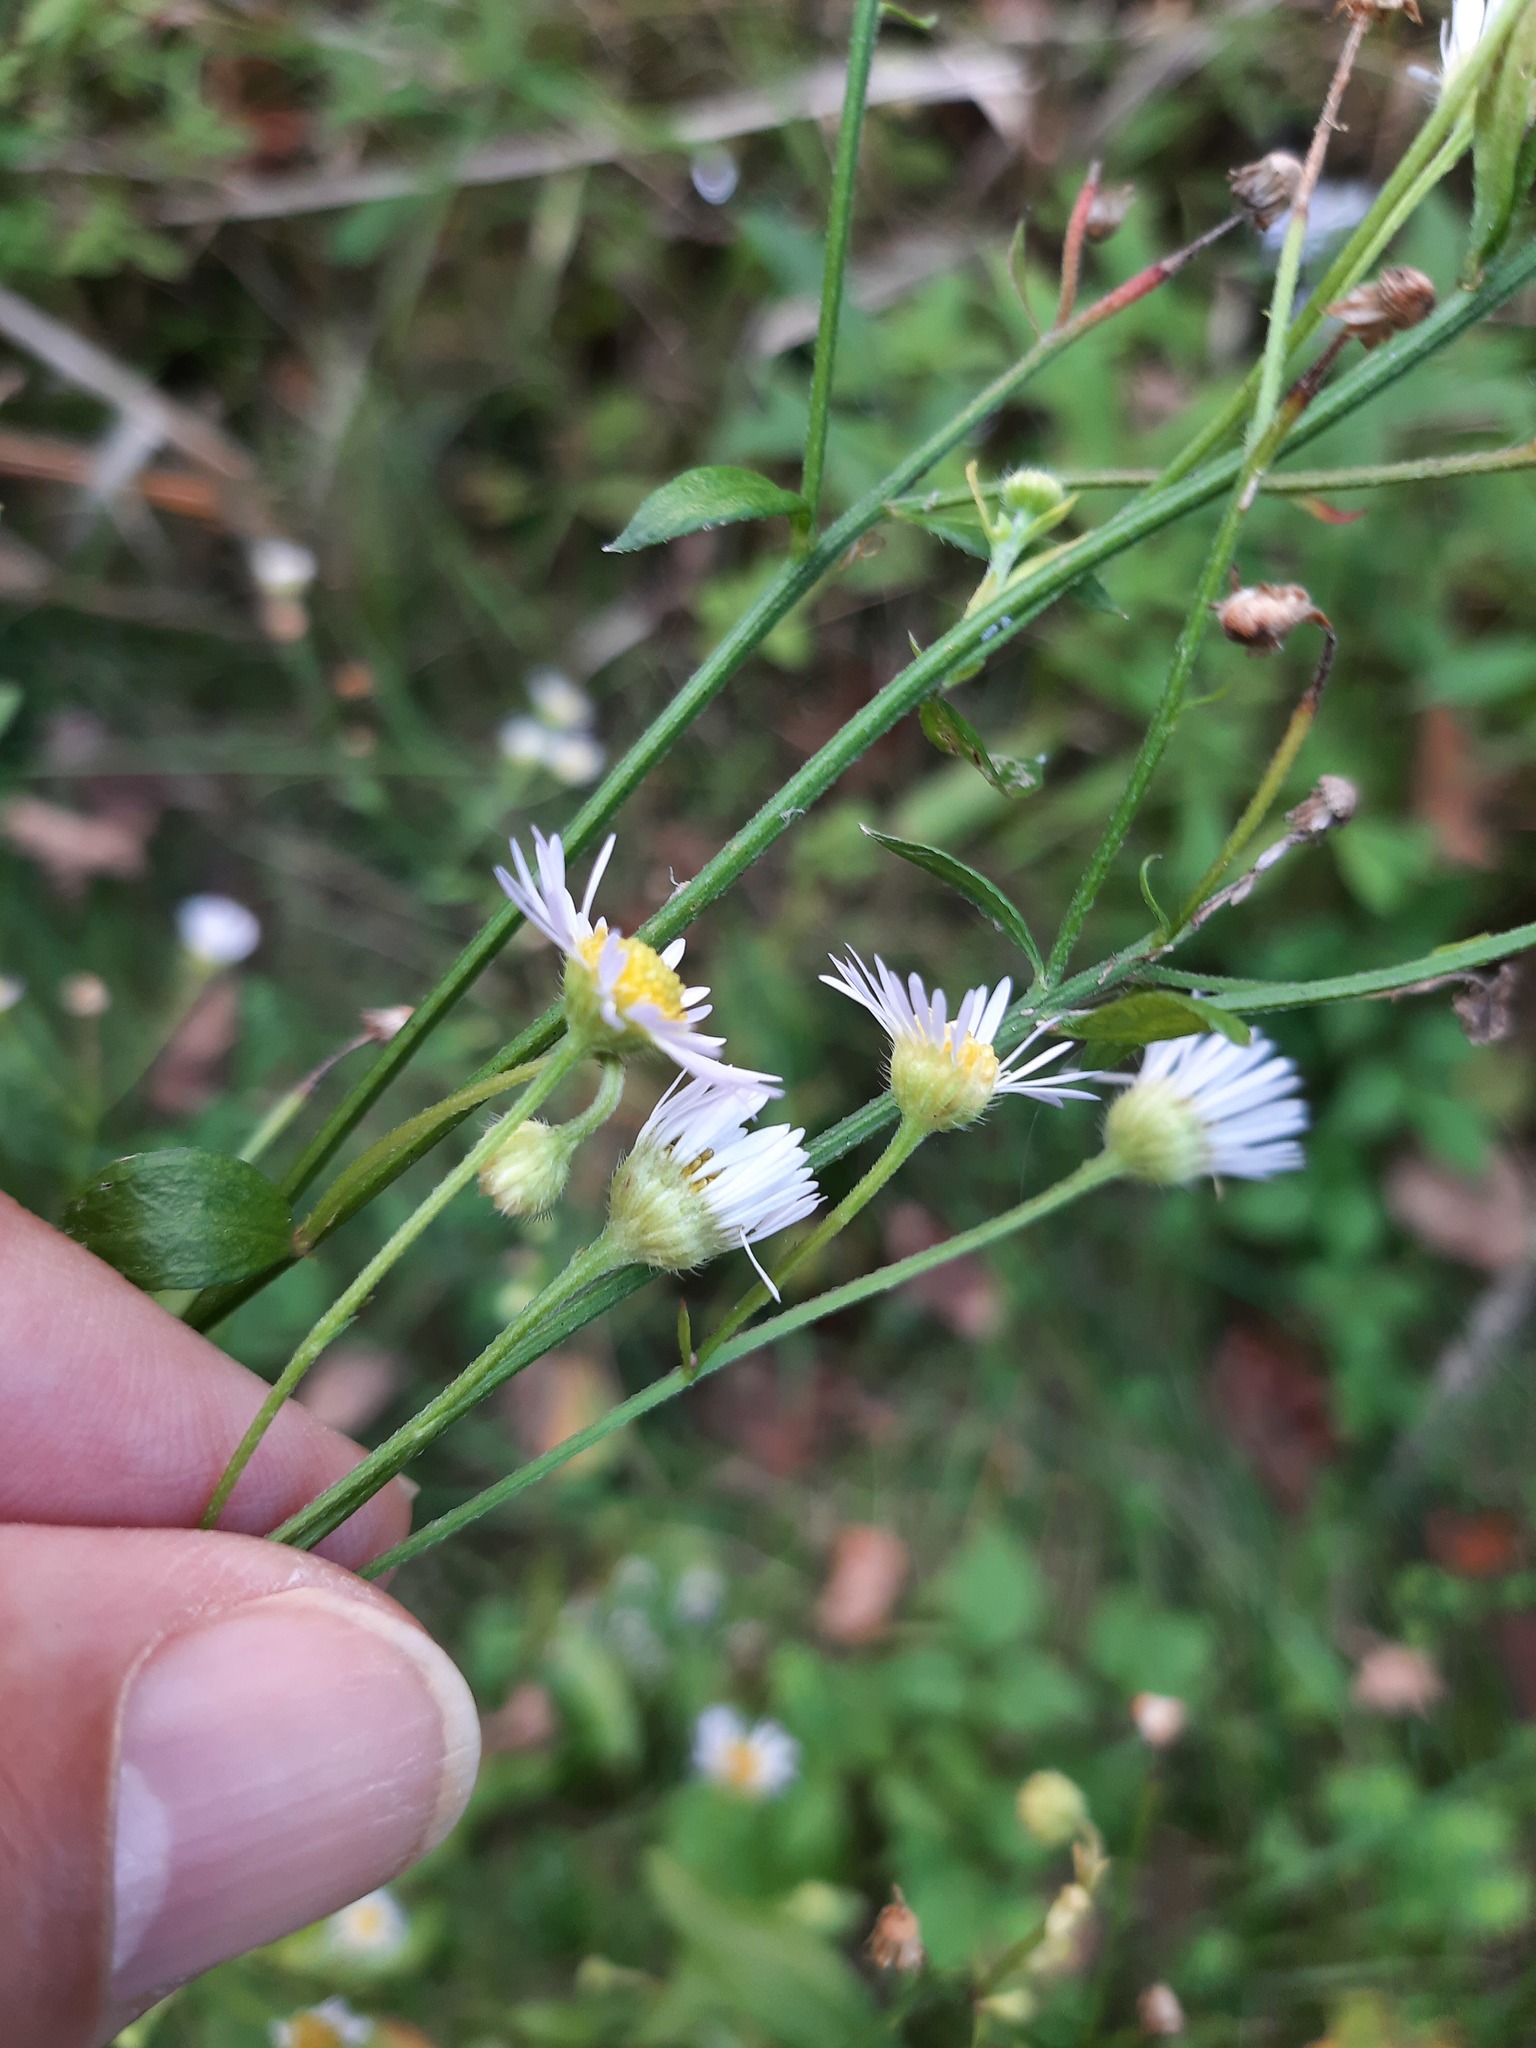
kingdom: Plantae
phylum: Tracheophyta
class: Magnoliopsida
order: Asterales
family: Asteraceae
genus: Erigeron
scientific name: Erigeron strigosus
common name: Common eastern fleabane
